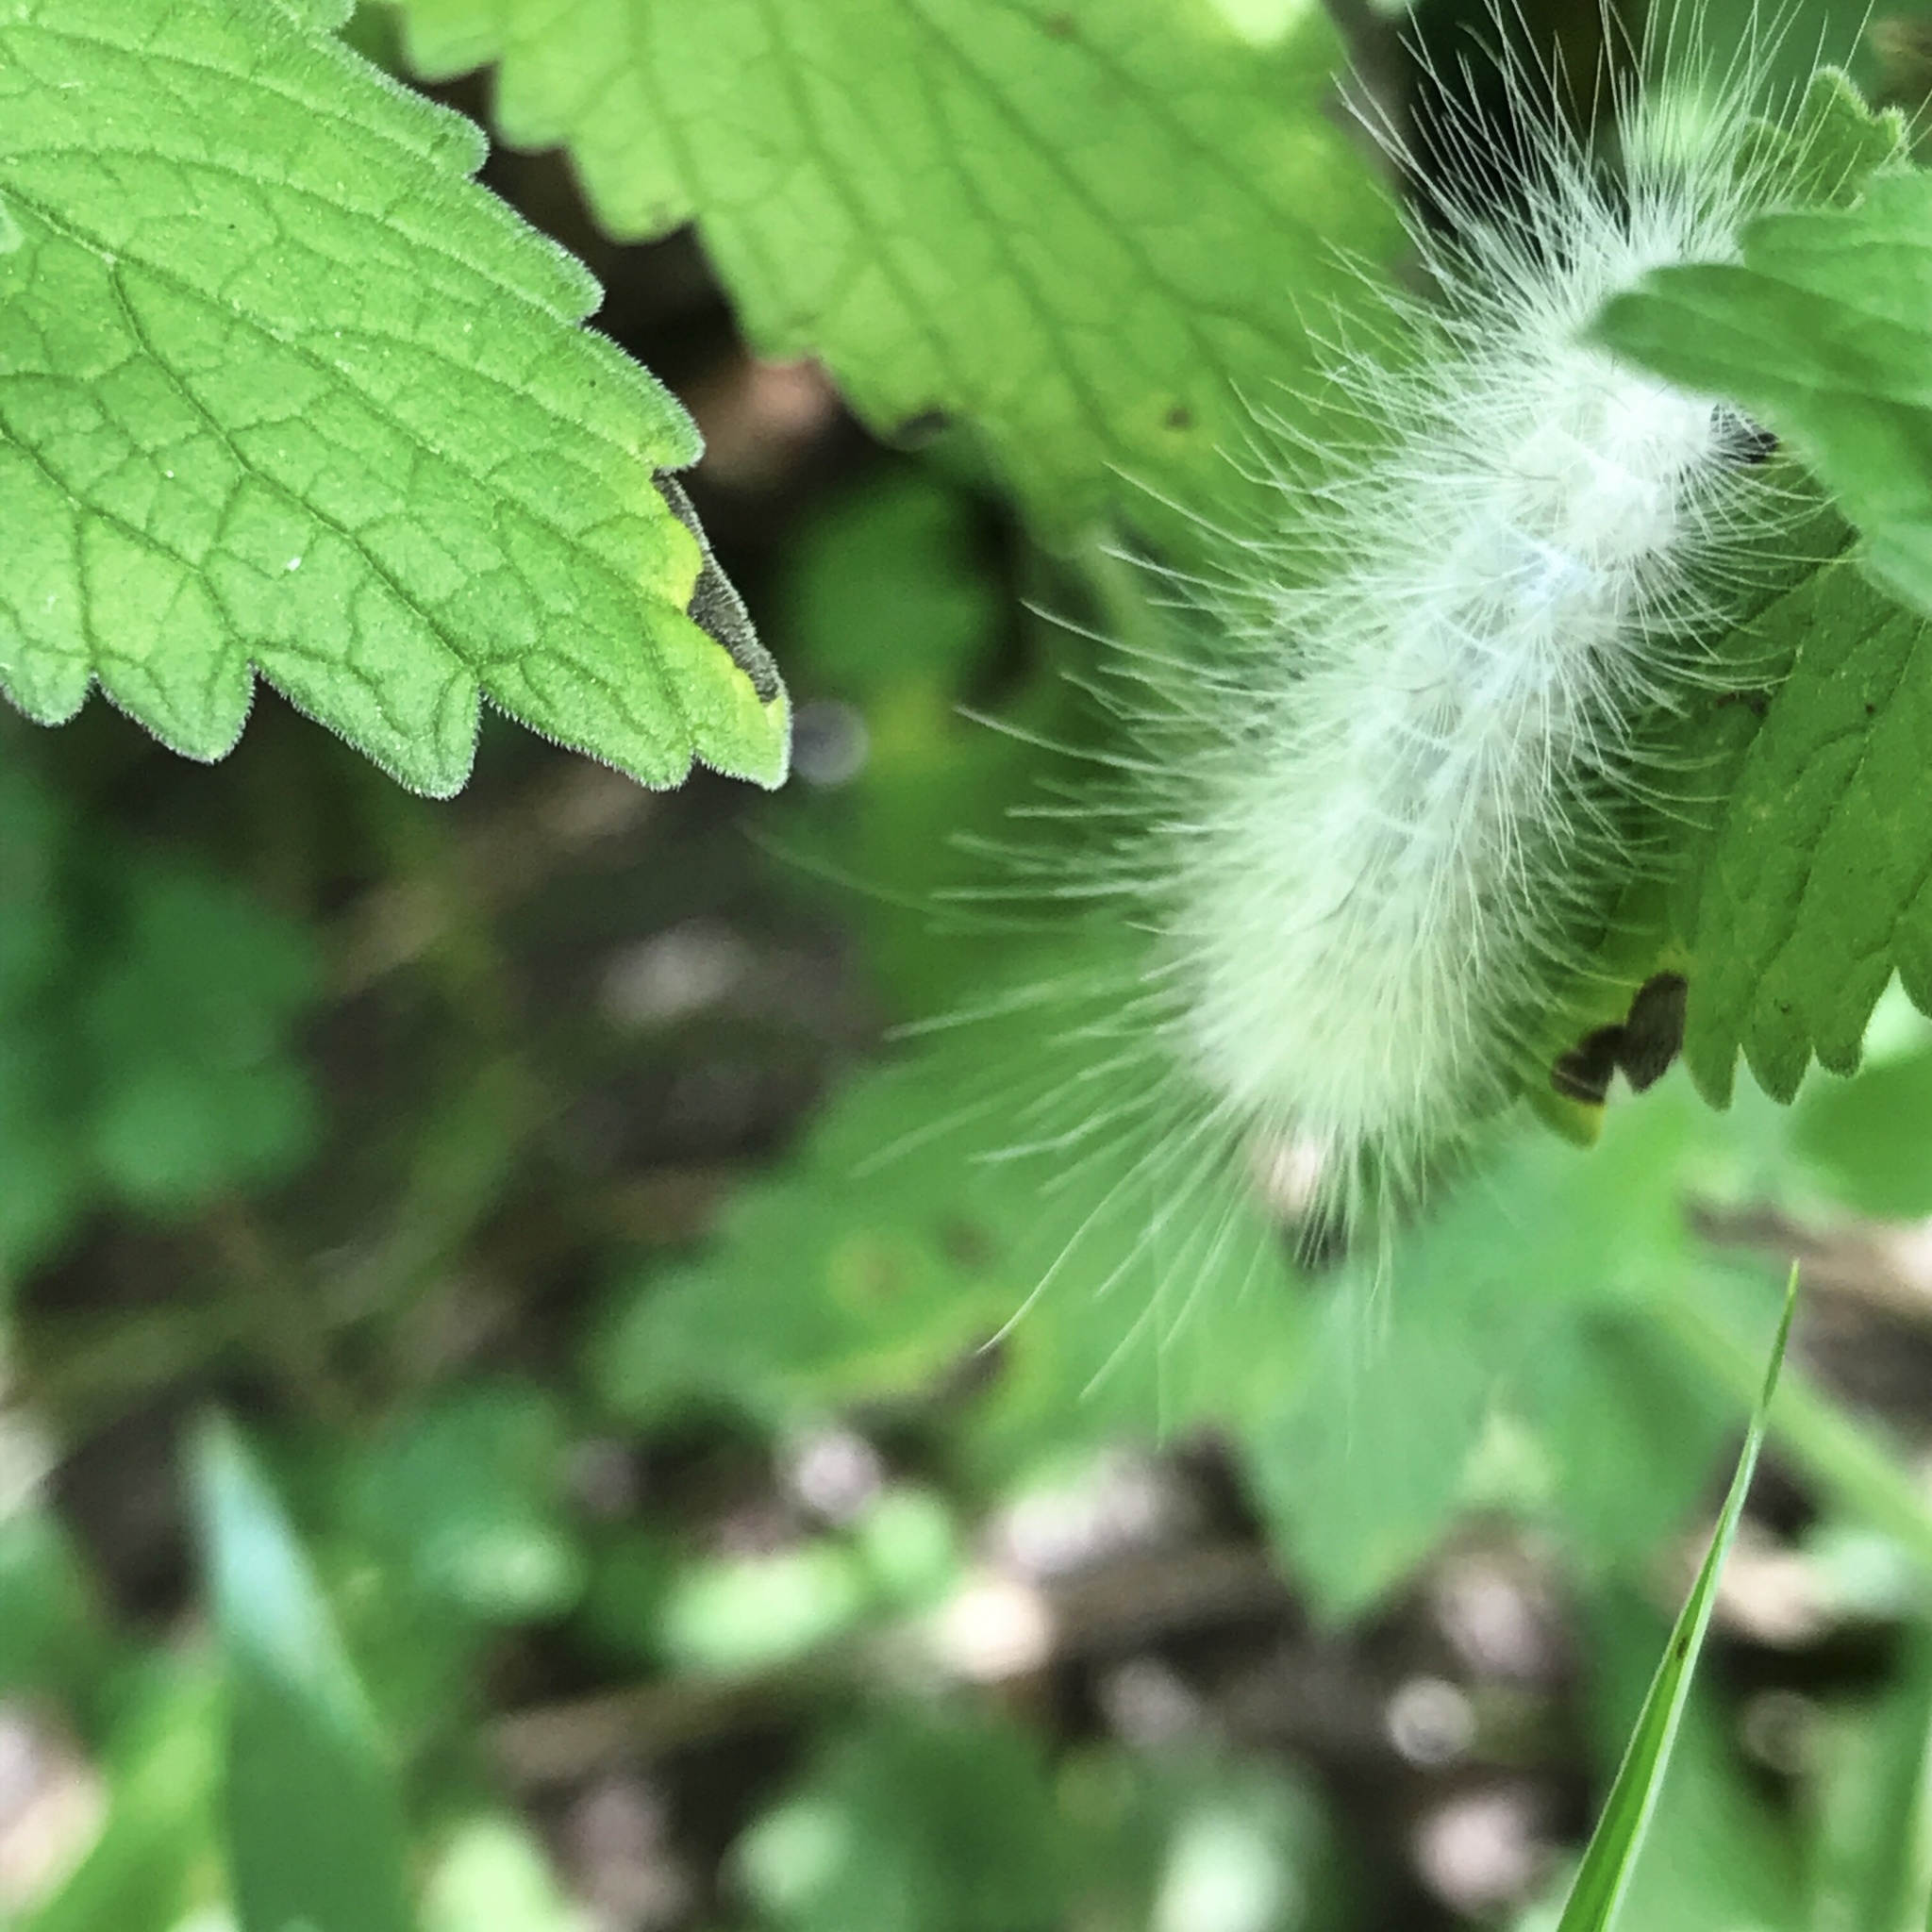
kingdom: Animalia
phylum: Arthropoda
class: Insecta
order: Lepidoptera
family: Erebidae
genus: Spilosoma
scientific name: Spilosoma virginica
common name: Virginia tiger moth
